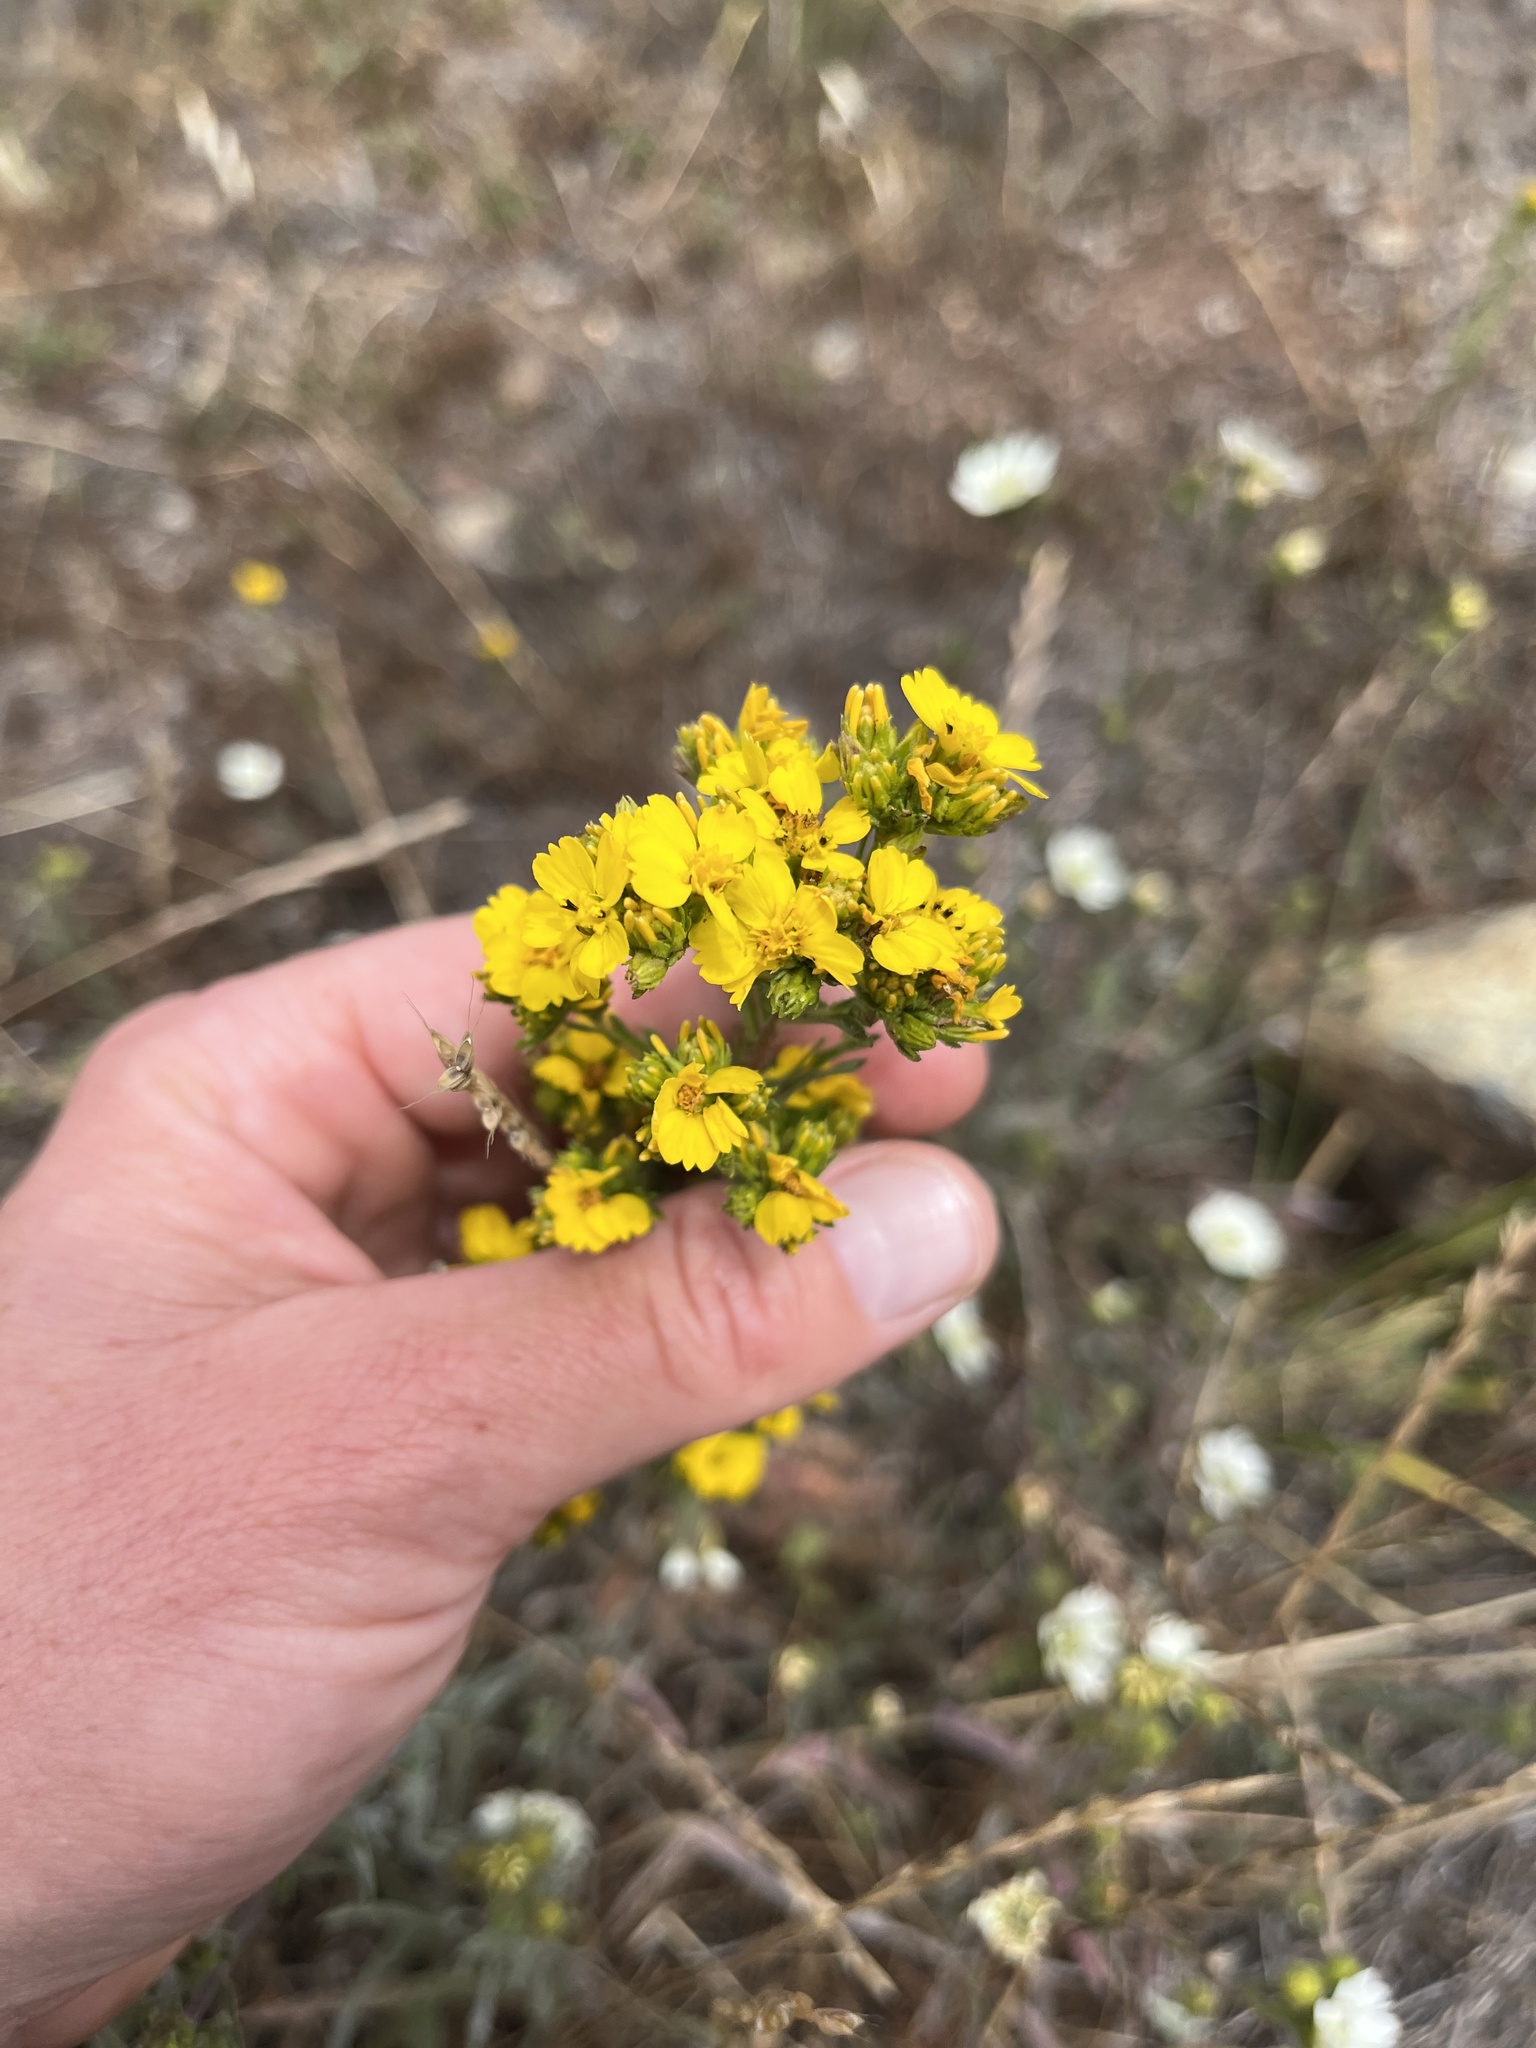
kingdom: Plantae
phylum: Tracheophyta
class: Magnoliopsida
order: Asterales
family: Asteraceae
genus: Deinandra
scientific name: Deinandra fasciculata
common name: Clustered tarweed
